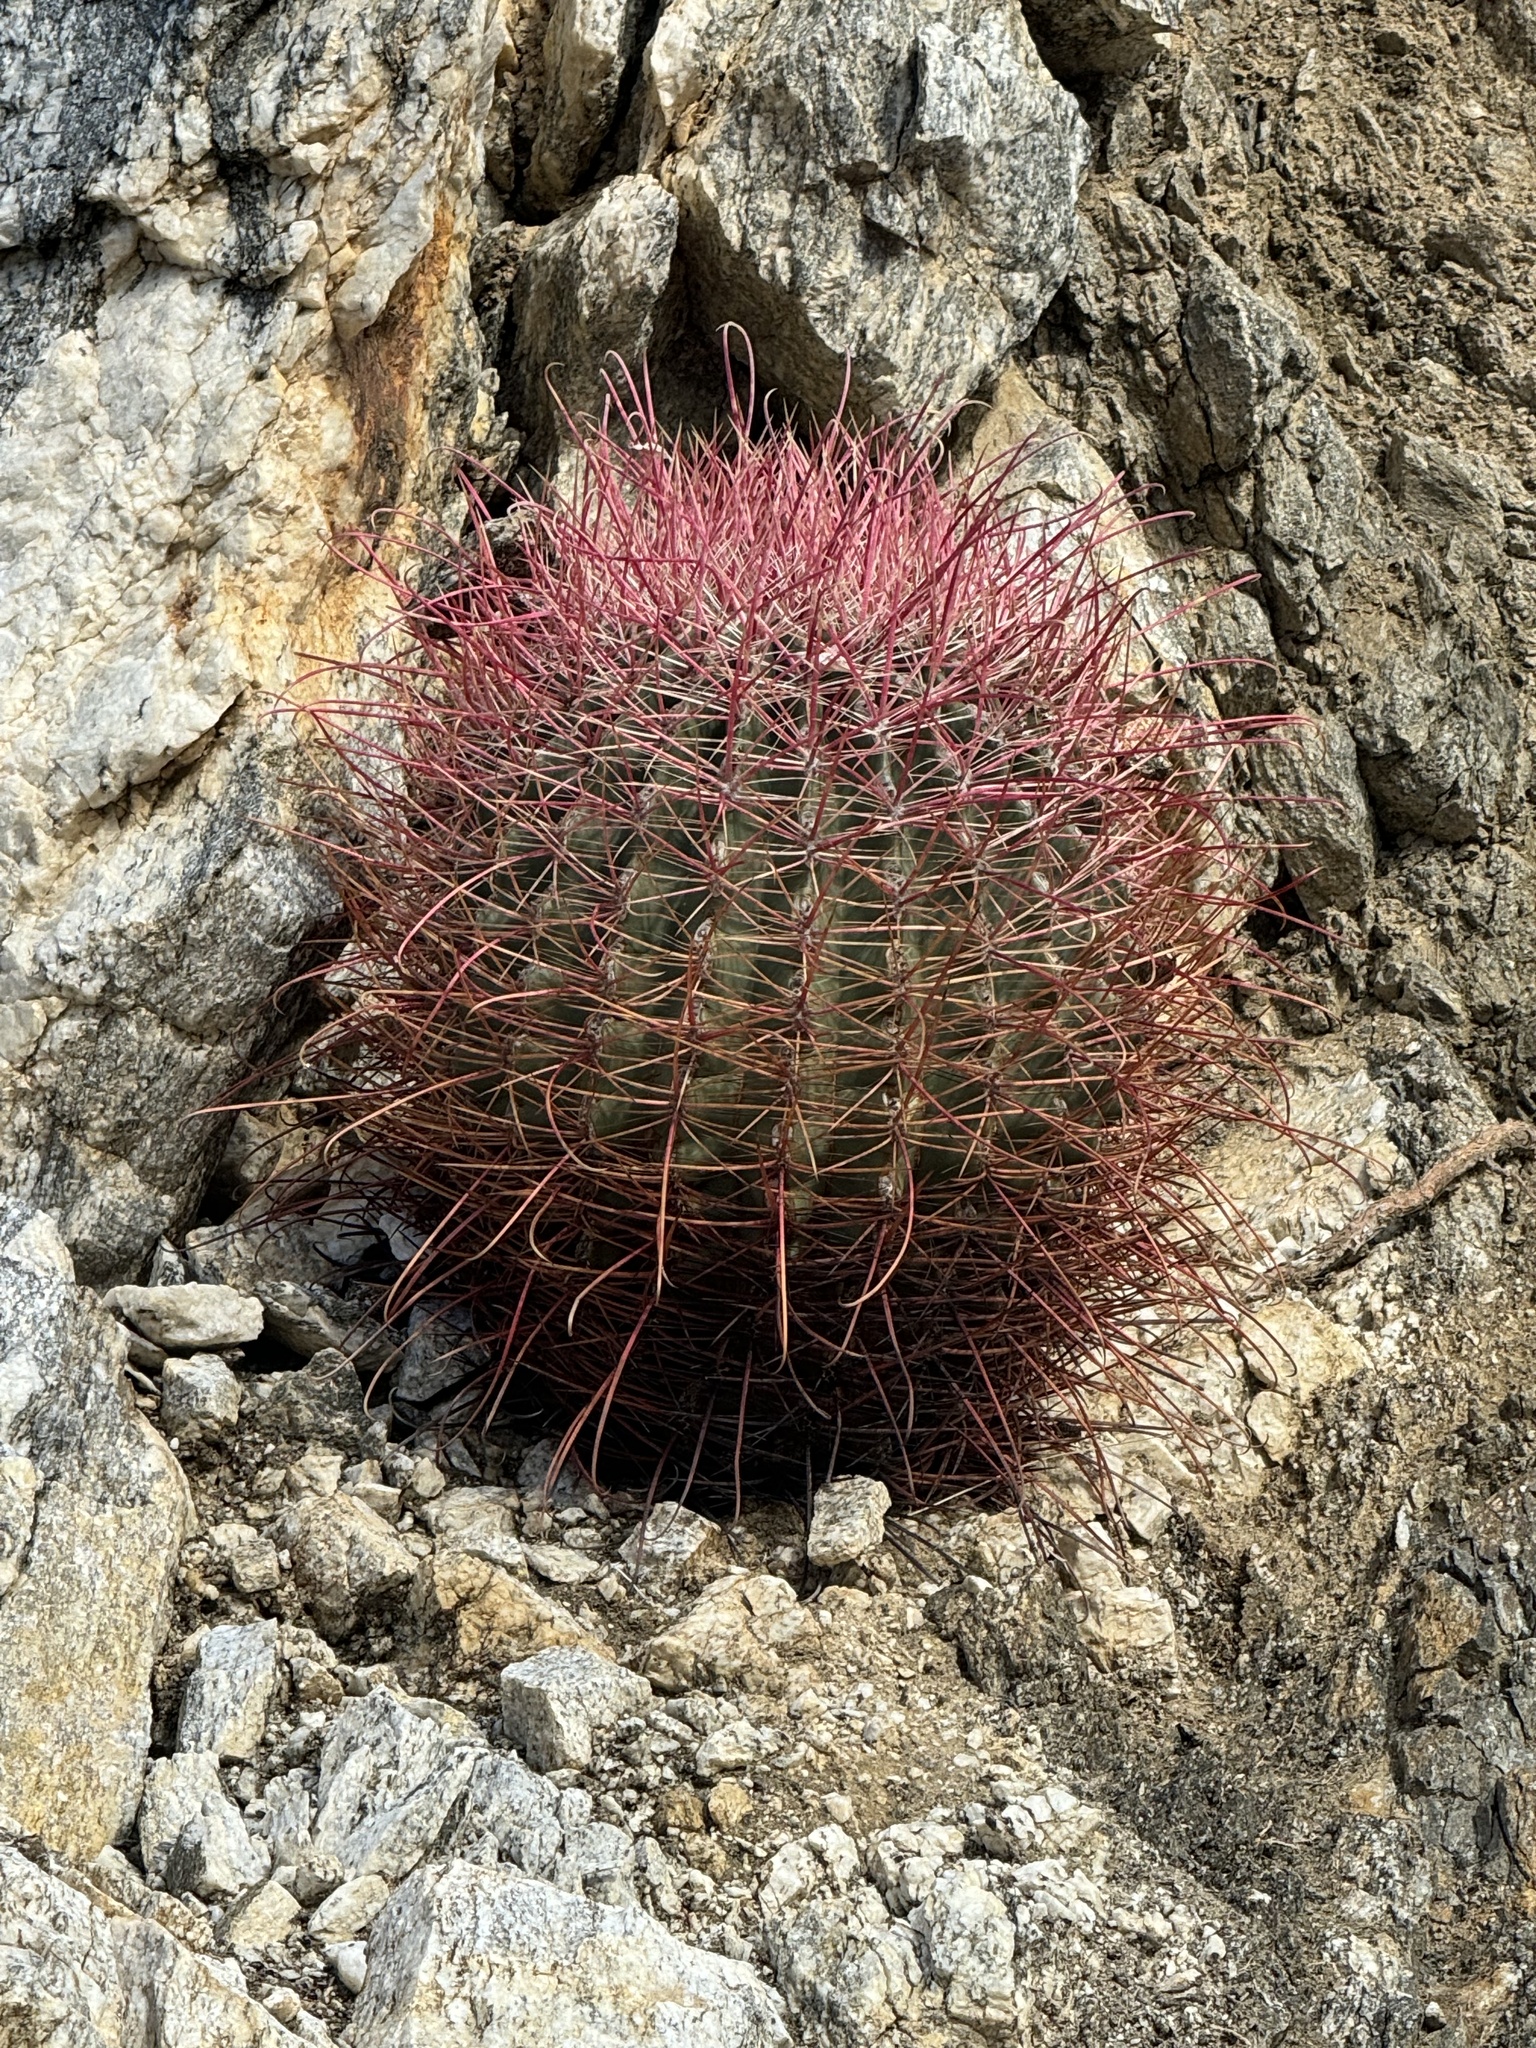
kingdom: Plantae
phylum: Tracheophyta
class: Magnoliopsida
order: Caryophyllales
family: Cactaceae
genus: Ferocactus
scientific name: Ferocactus cylindraceus
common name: California barrel cactus
